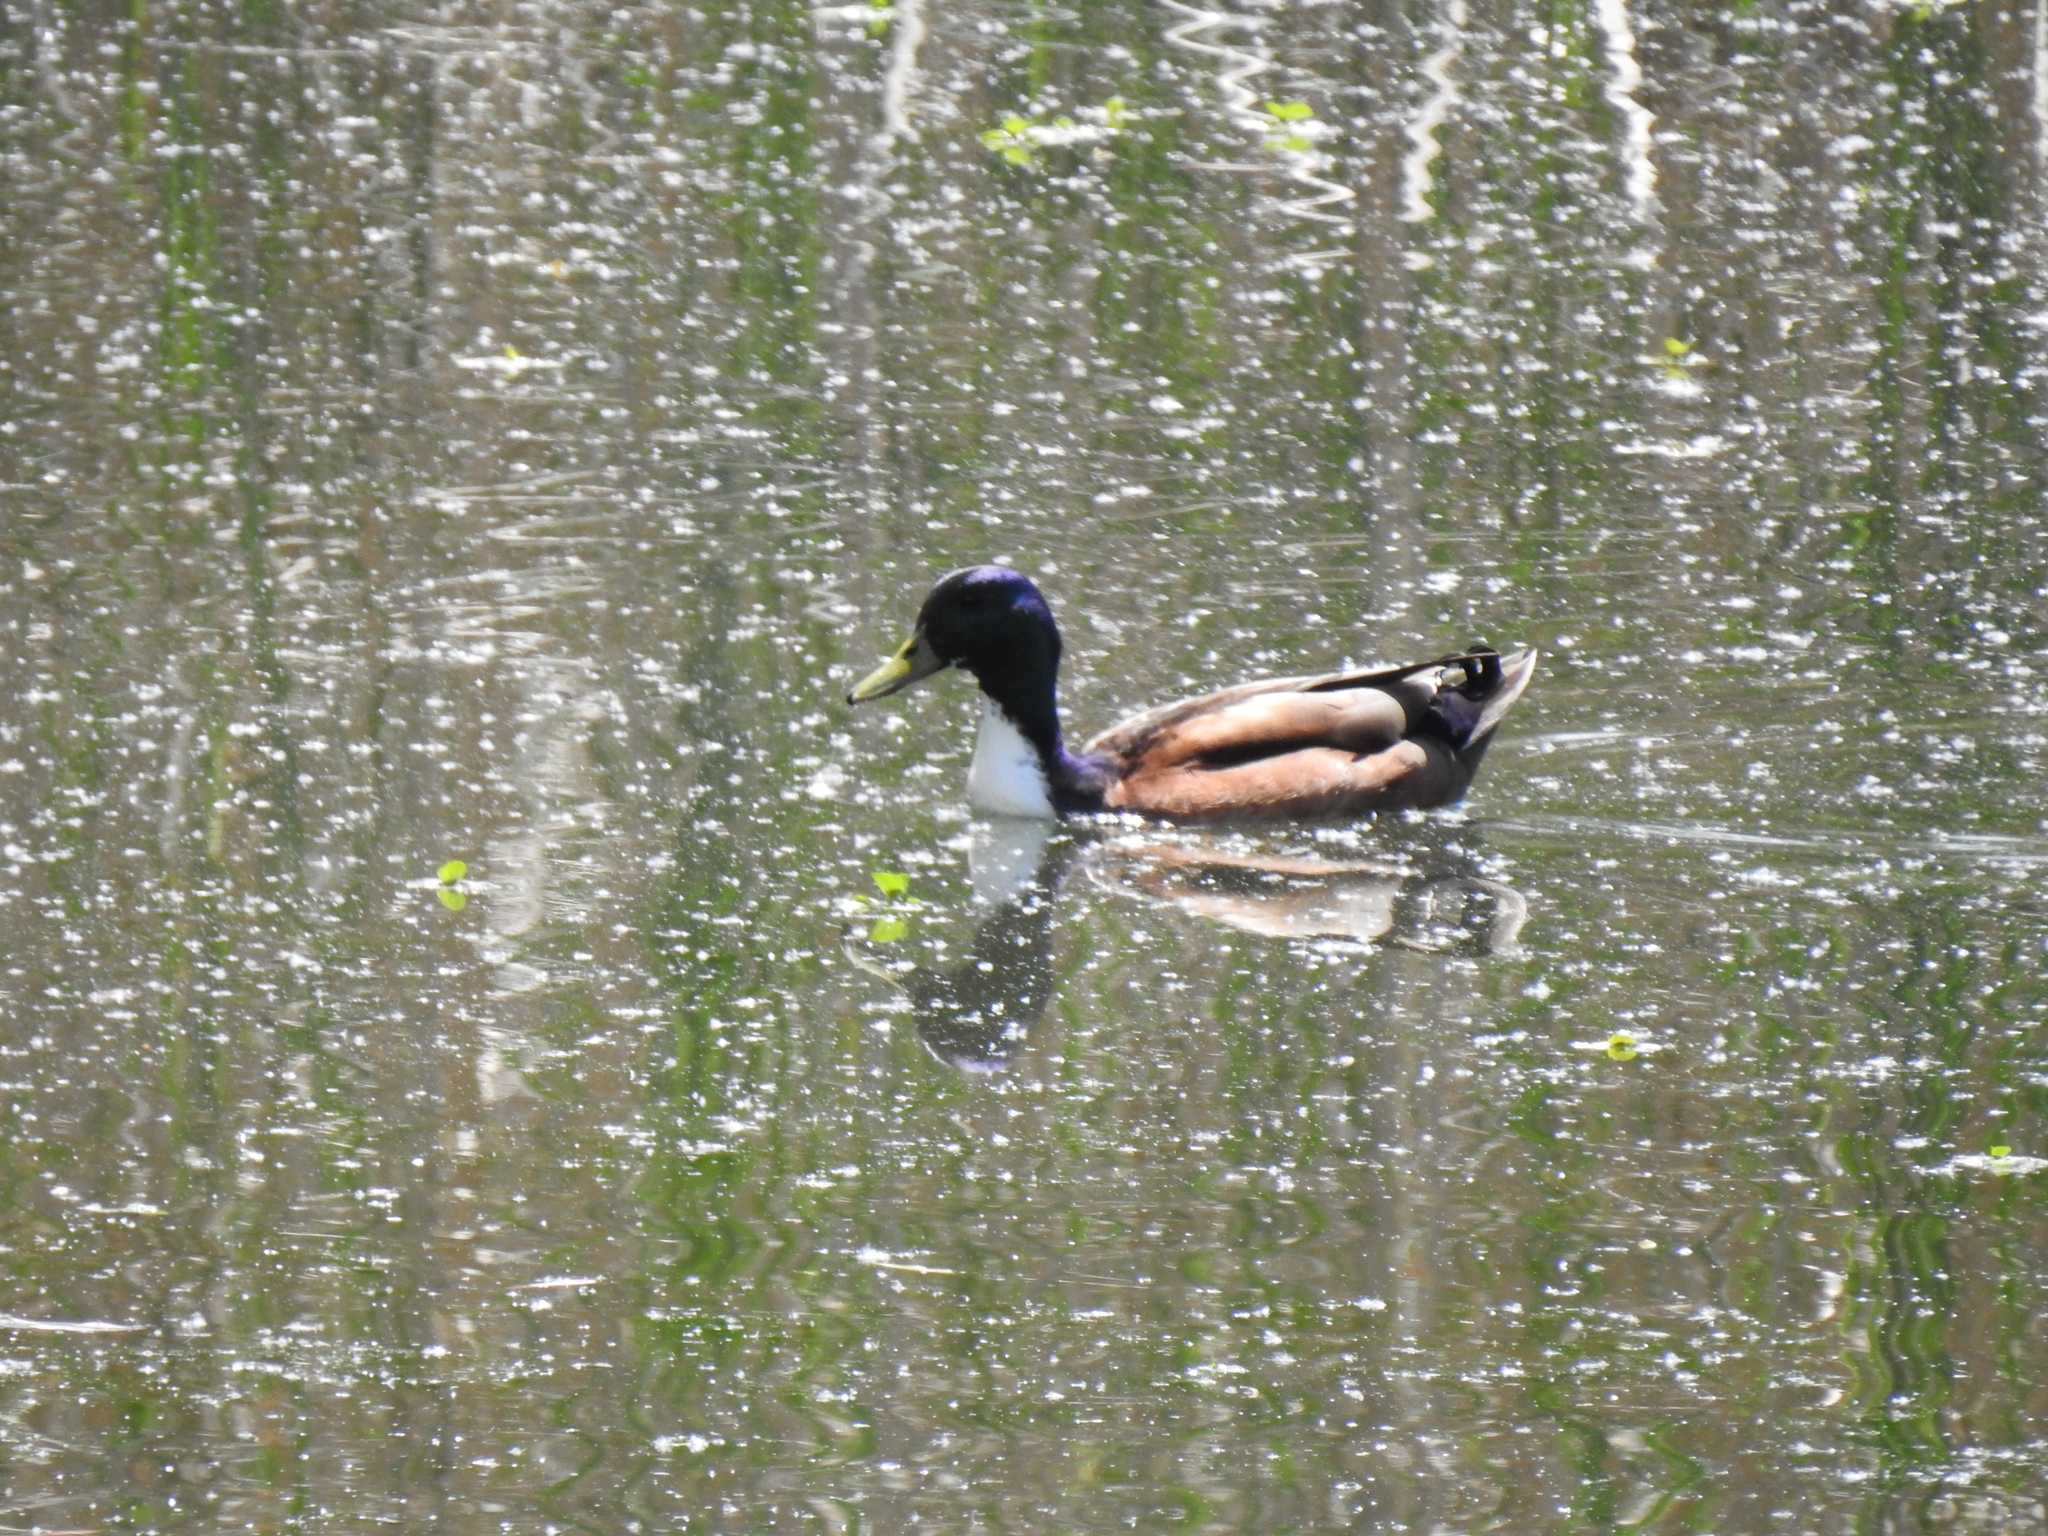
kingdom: Animalia
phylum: Chordata
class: Aves
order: Anseriformes
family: Anatidae
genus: Anas
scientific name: Anas platyrhynchos
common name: Mallard
